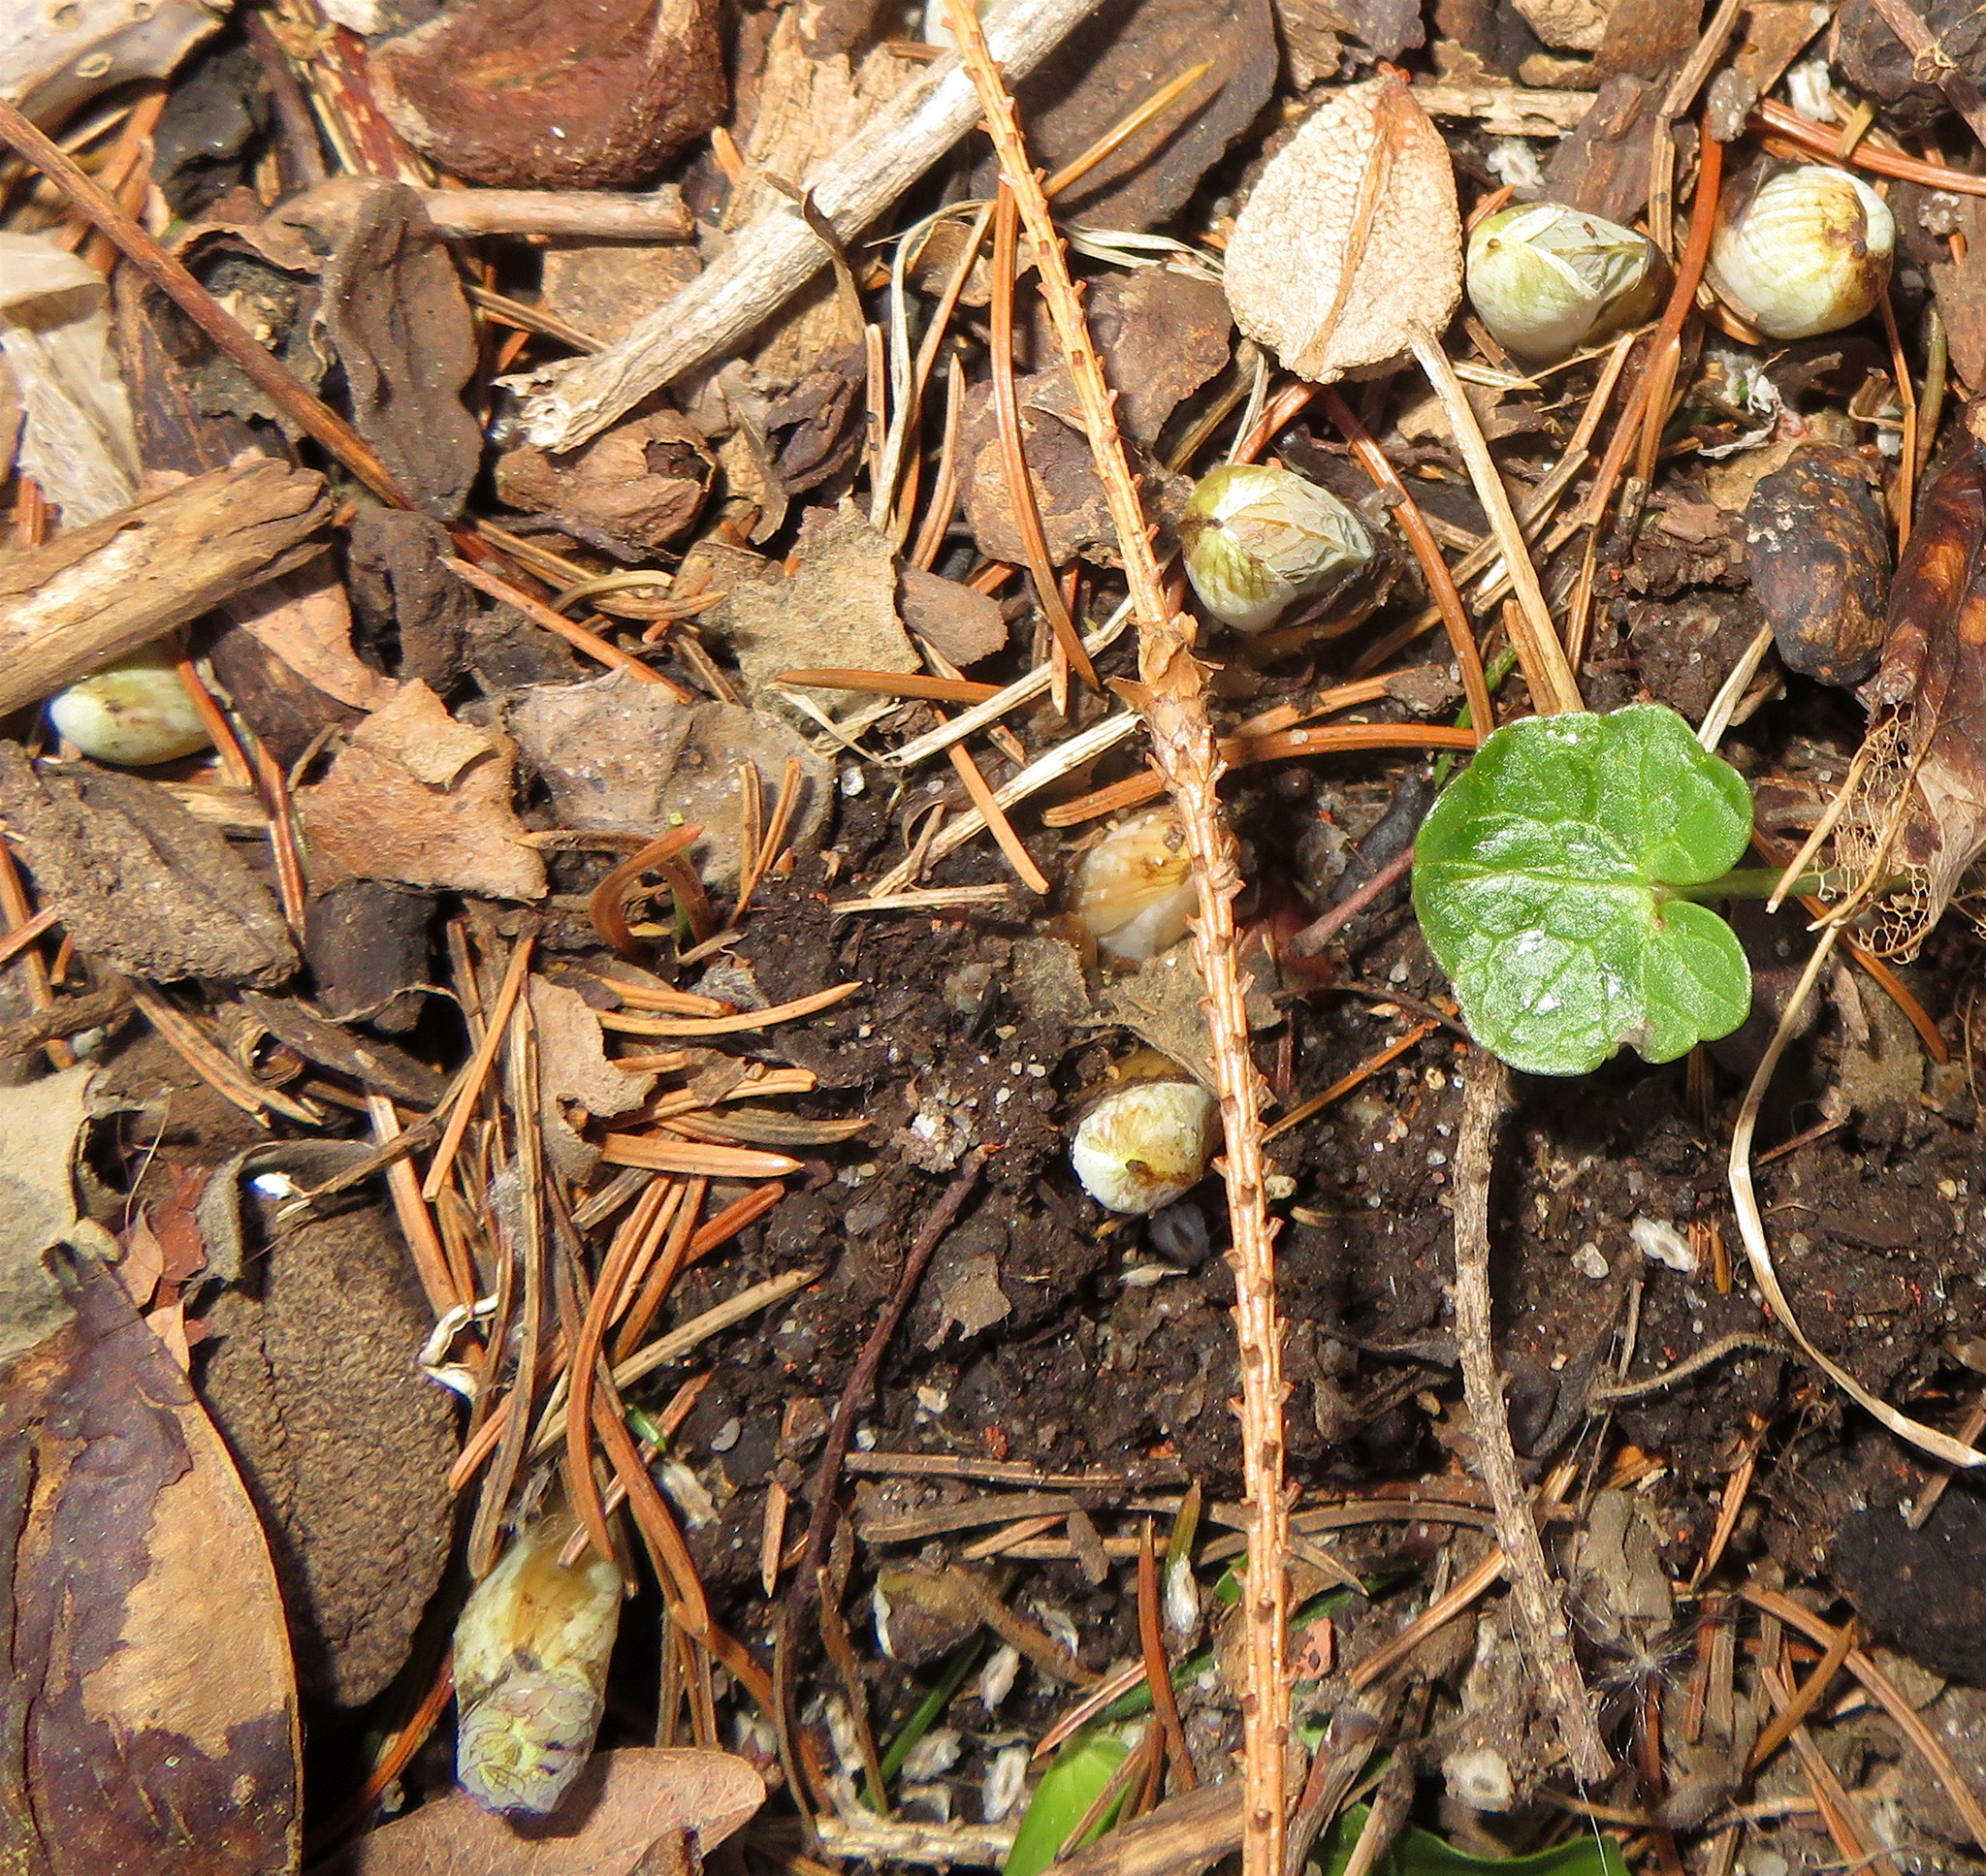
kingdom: Plantae
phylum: Tracheophyta
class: Magnoliopsida
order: Ranunculales
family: Papaveraceae
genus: Sanguinaria
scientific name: Sanguinaria canadensis
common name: Bloodroot
